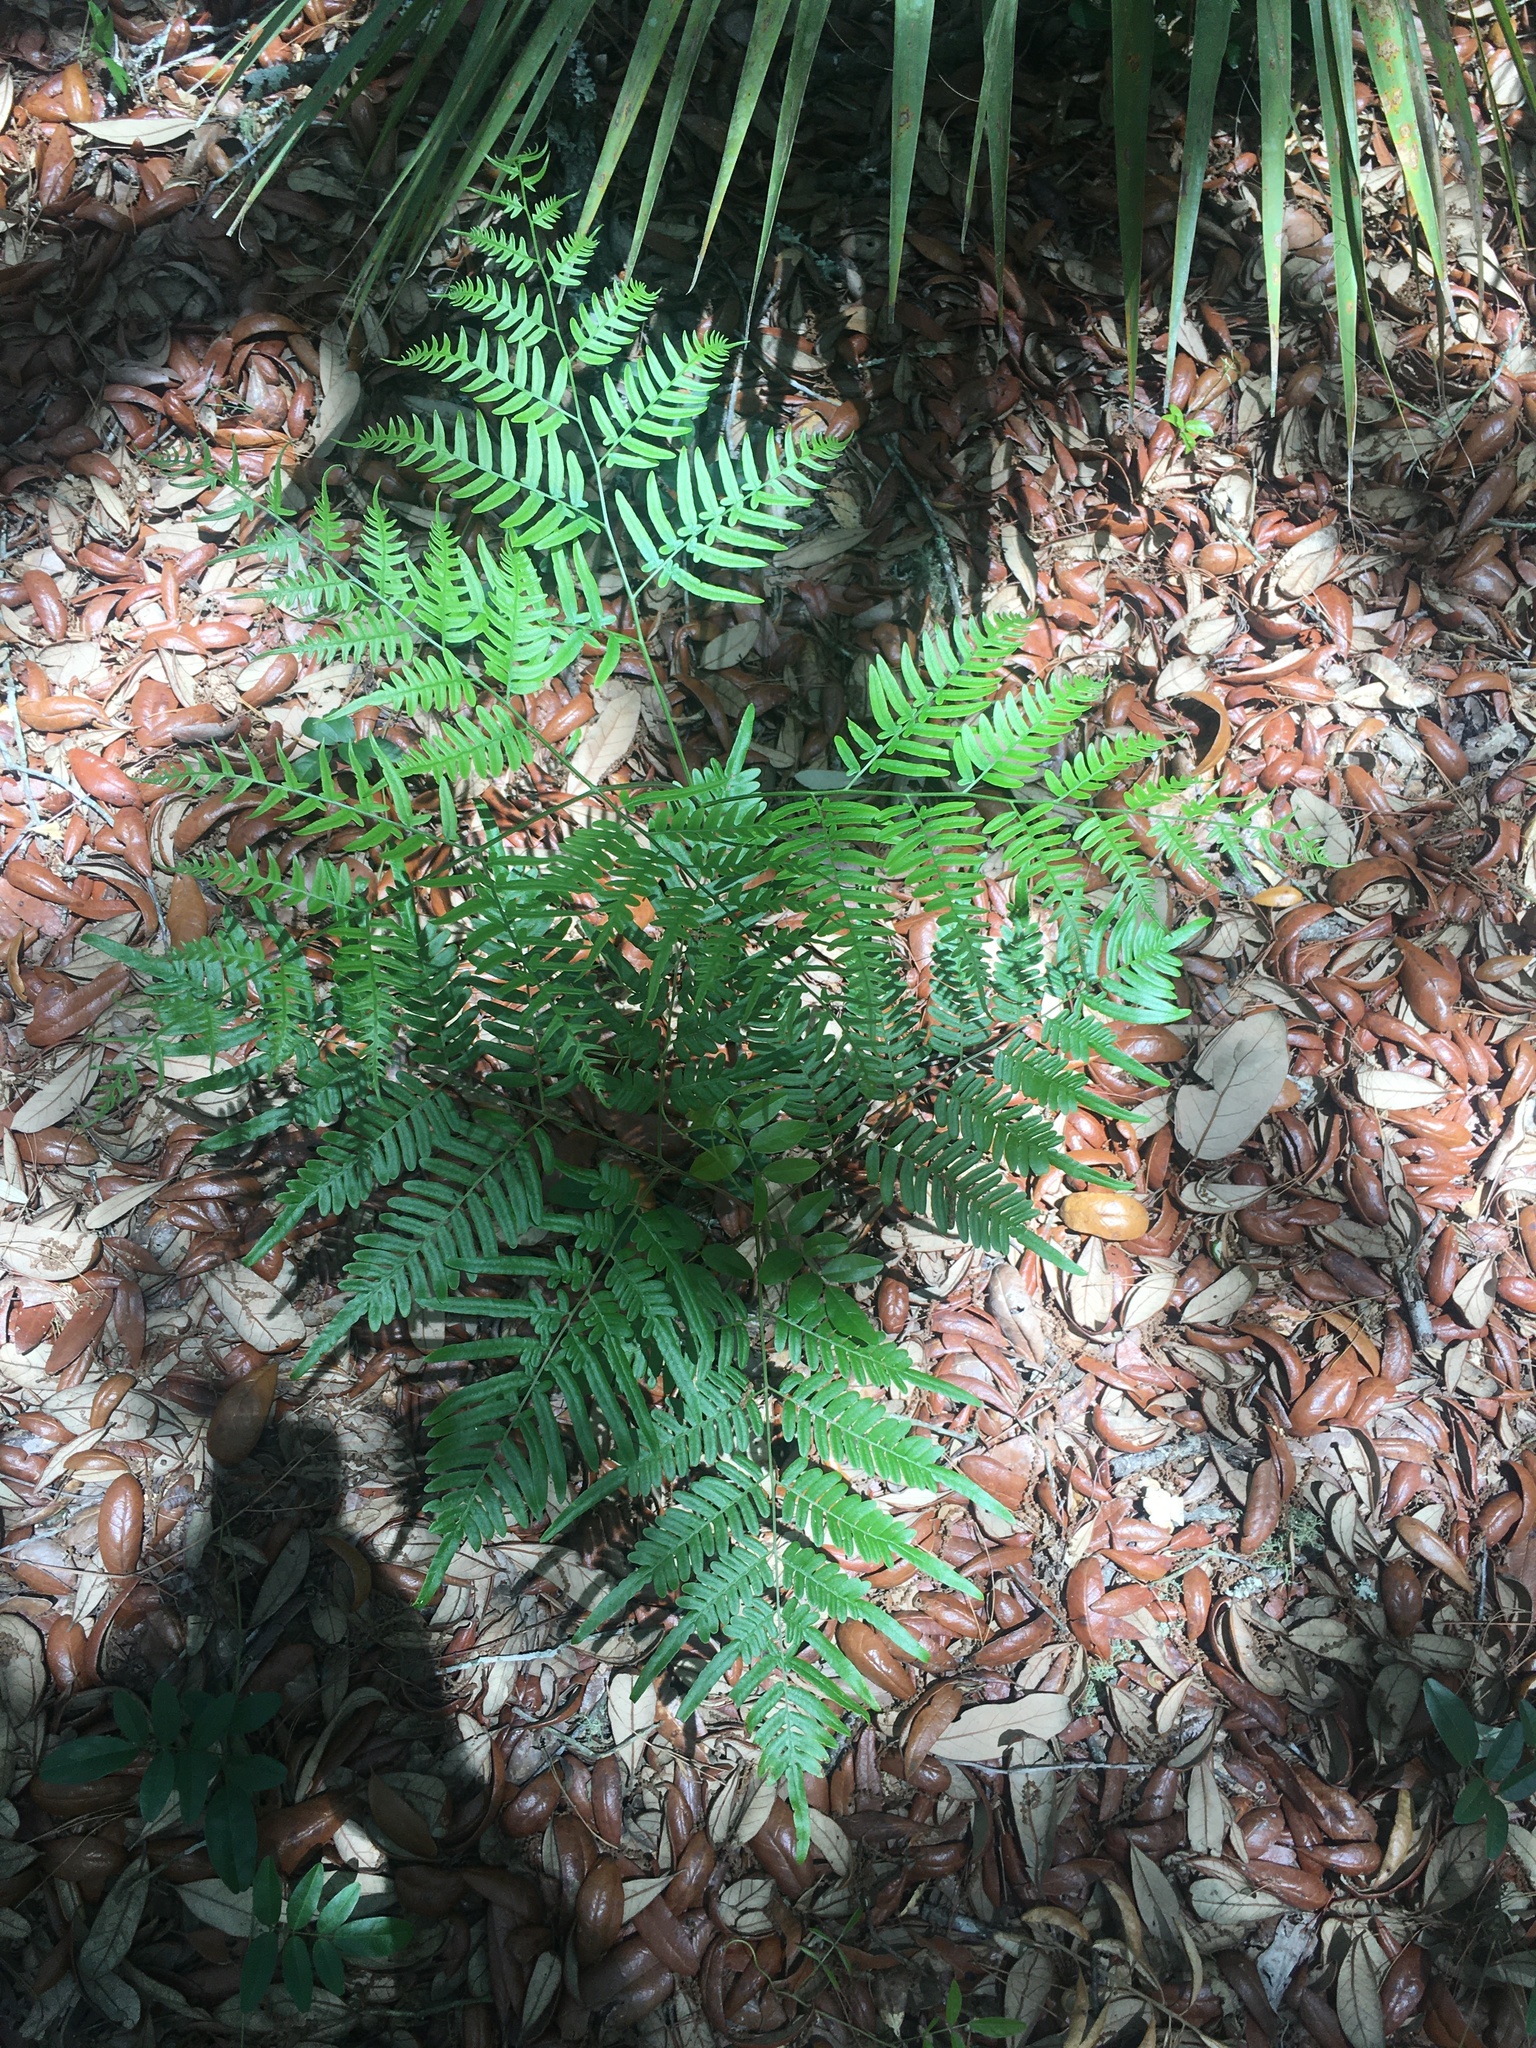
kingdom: Plantae
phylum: Tracheophyta
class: Polypodiopsida
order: Polypodiales
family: Dennstaedtiaceae
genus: Pteridium
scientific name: Pteridium
